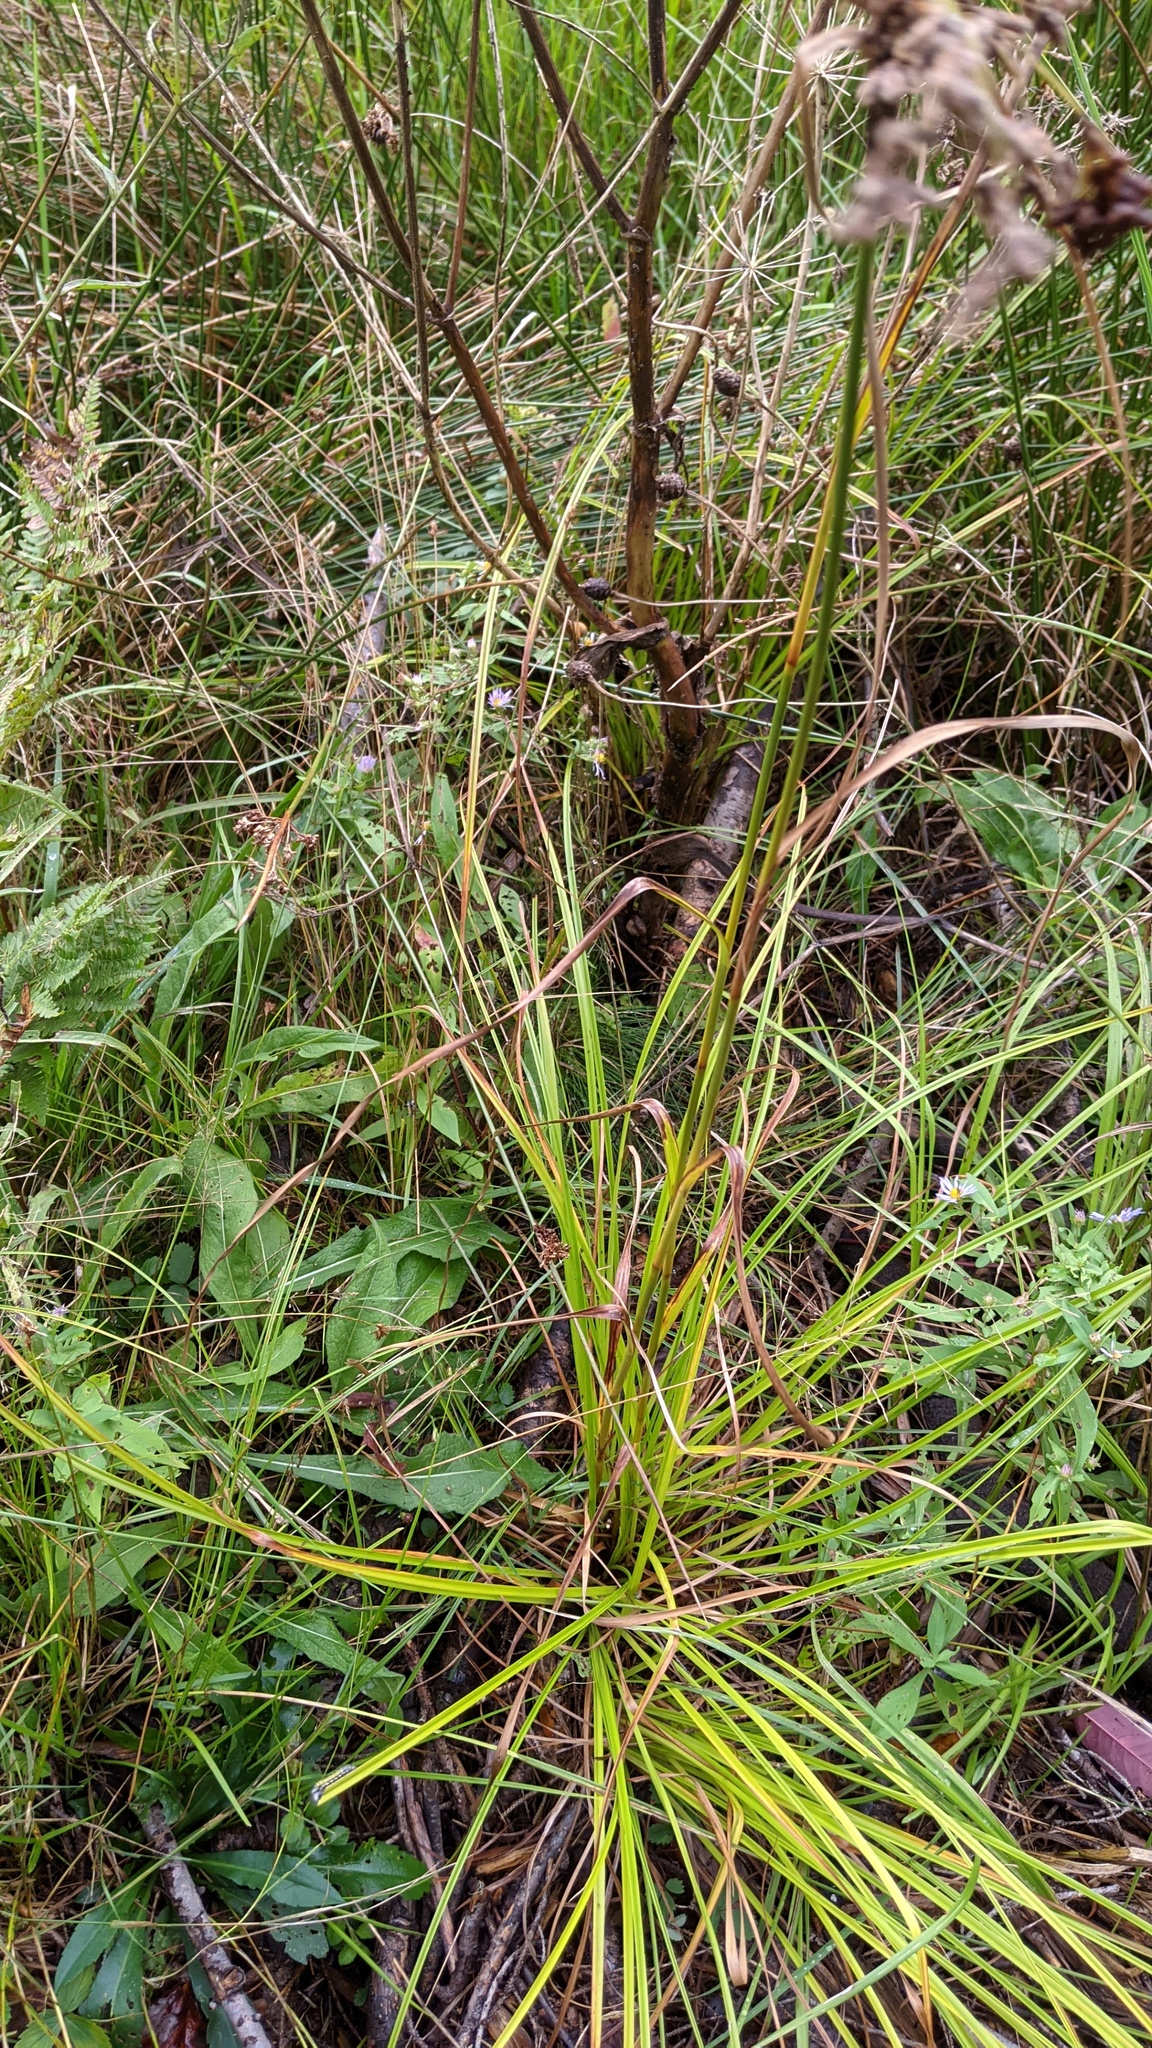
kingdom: Plantae
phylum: Tracheophyta
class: Liliopsida
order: Poales
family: Cyperaceae
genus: Scirpus
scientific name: Scirpus cyperinus
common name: Black-sheathed bulrush
